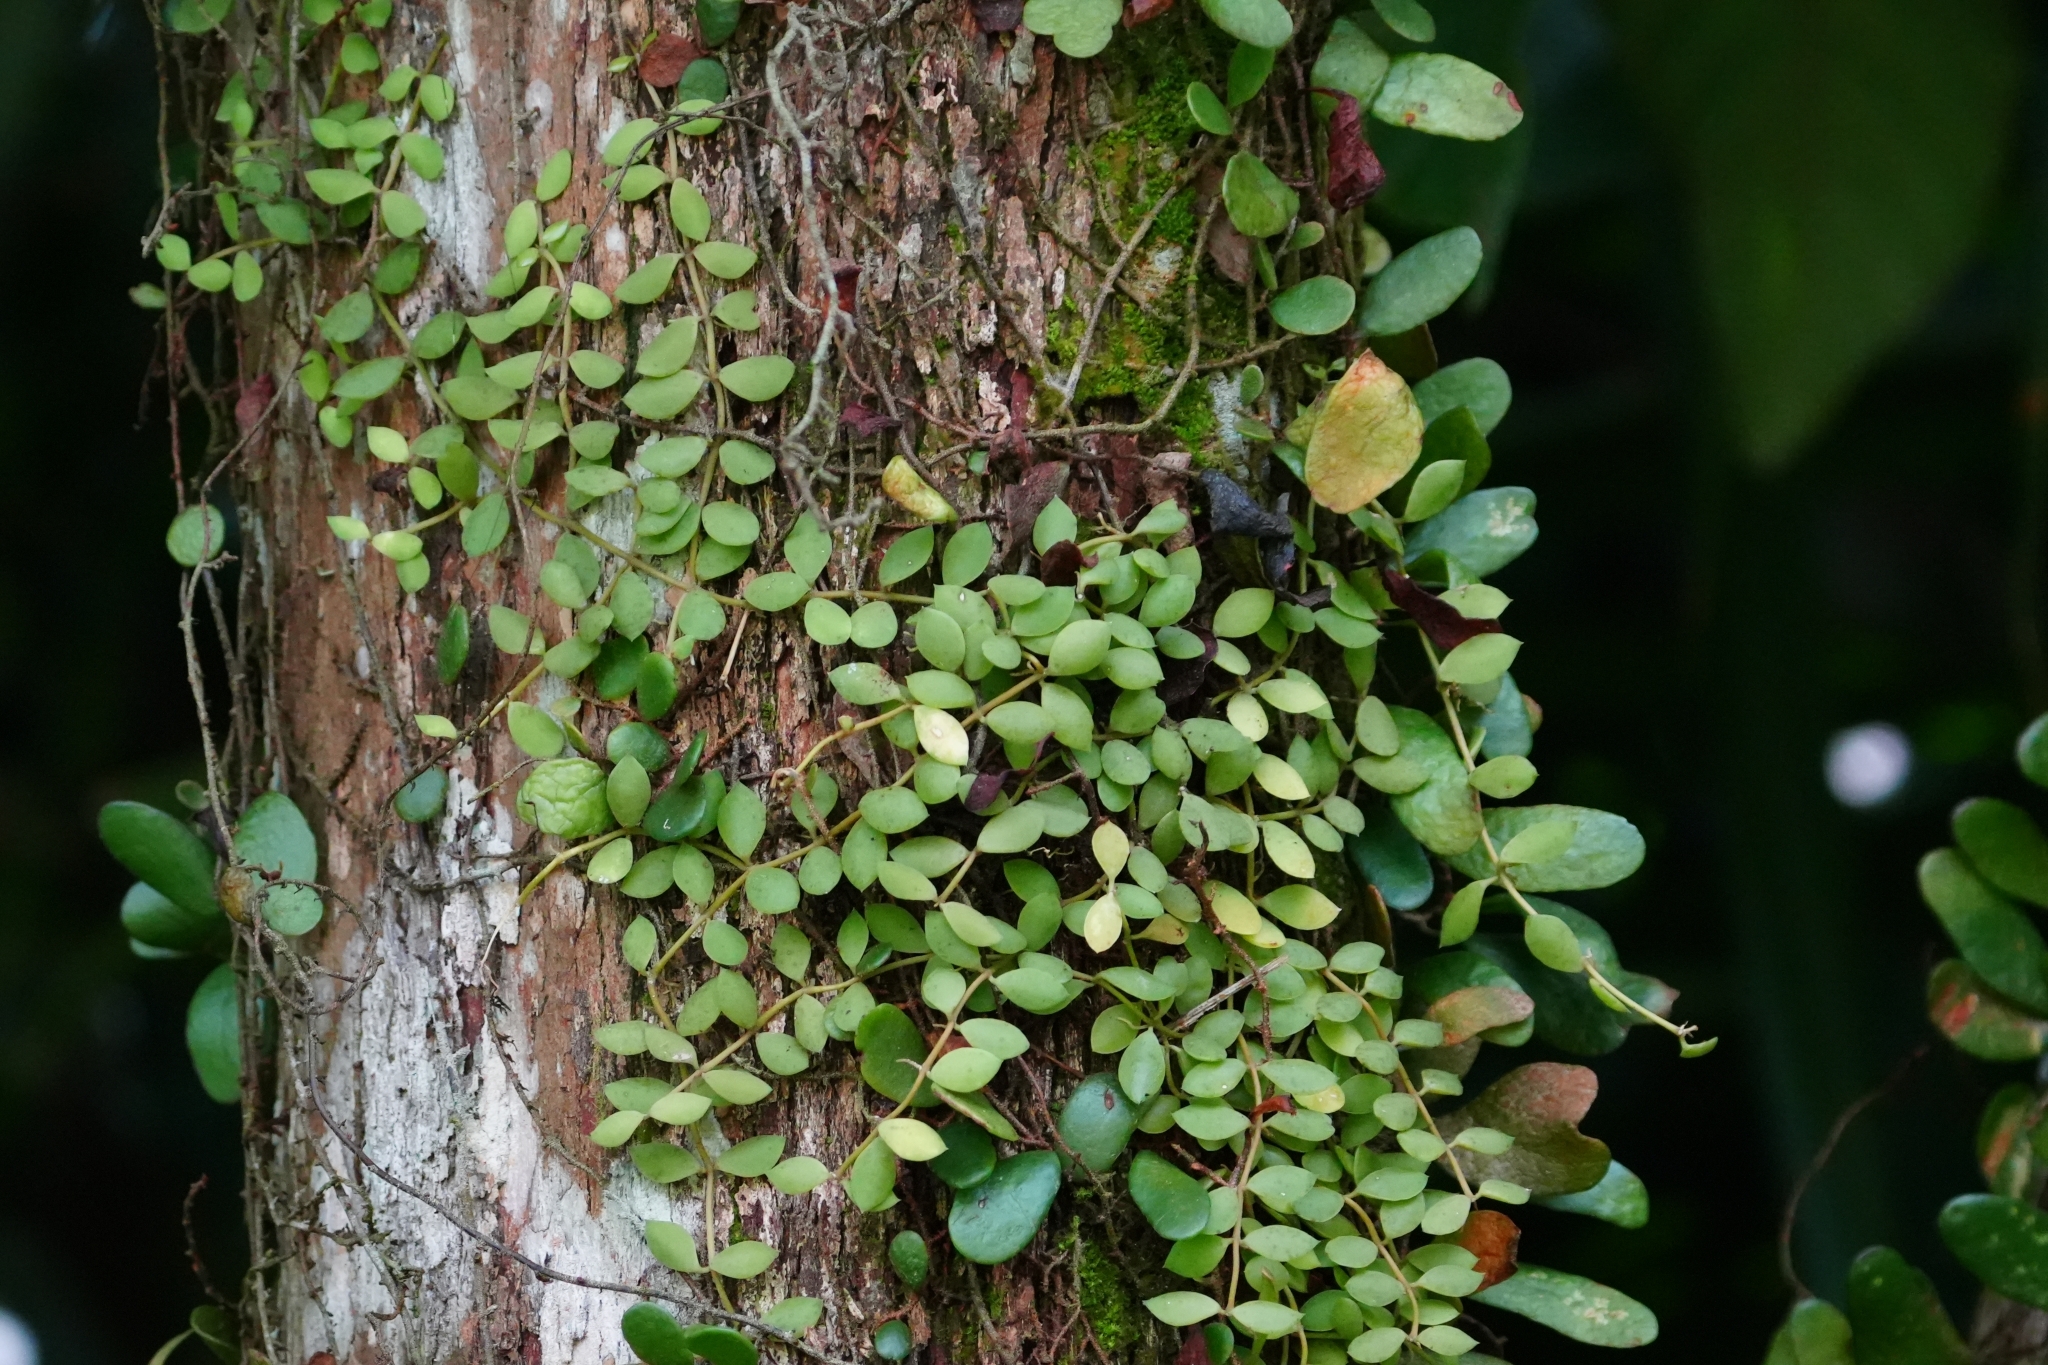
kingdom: Plantae
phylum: Tracheophyta
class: Magnoliopsida
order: Gentianales
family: Apocynaceae
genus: Dischidia
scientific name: Dischidia nummularia
